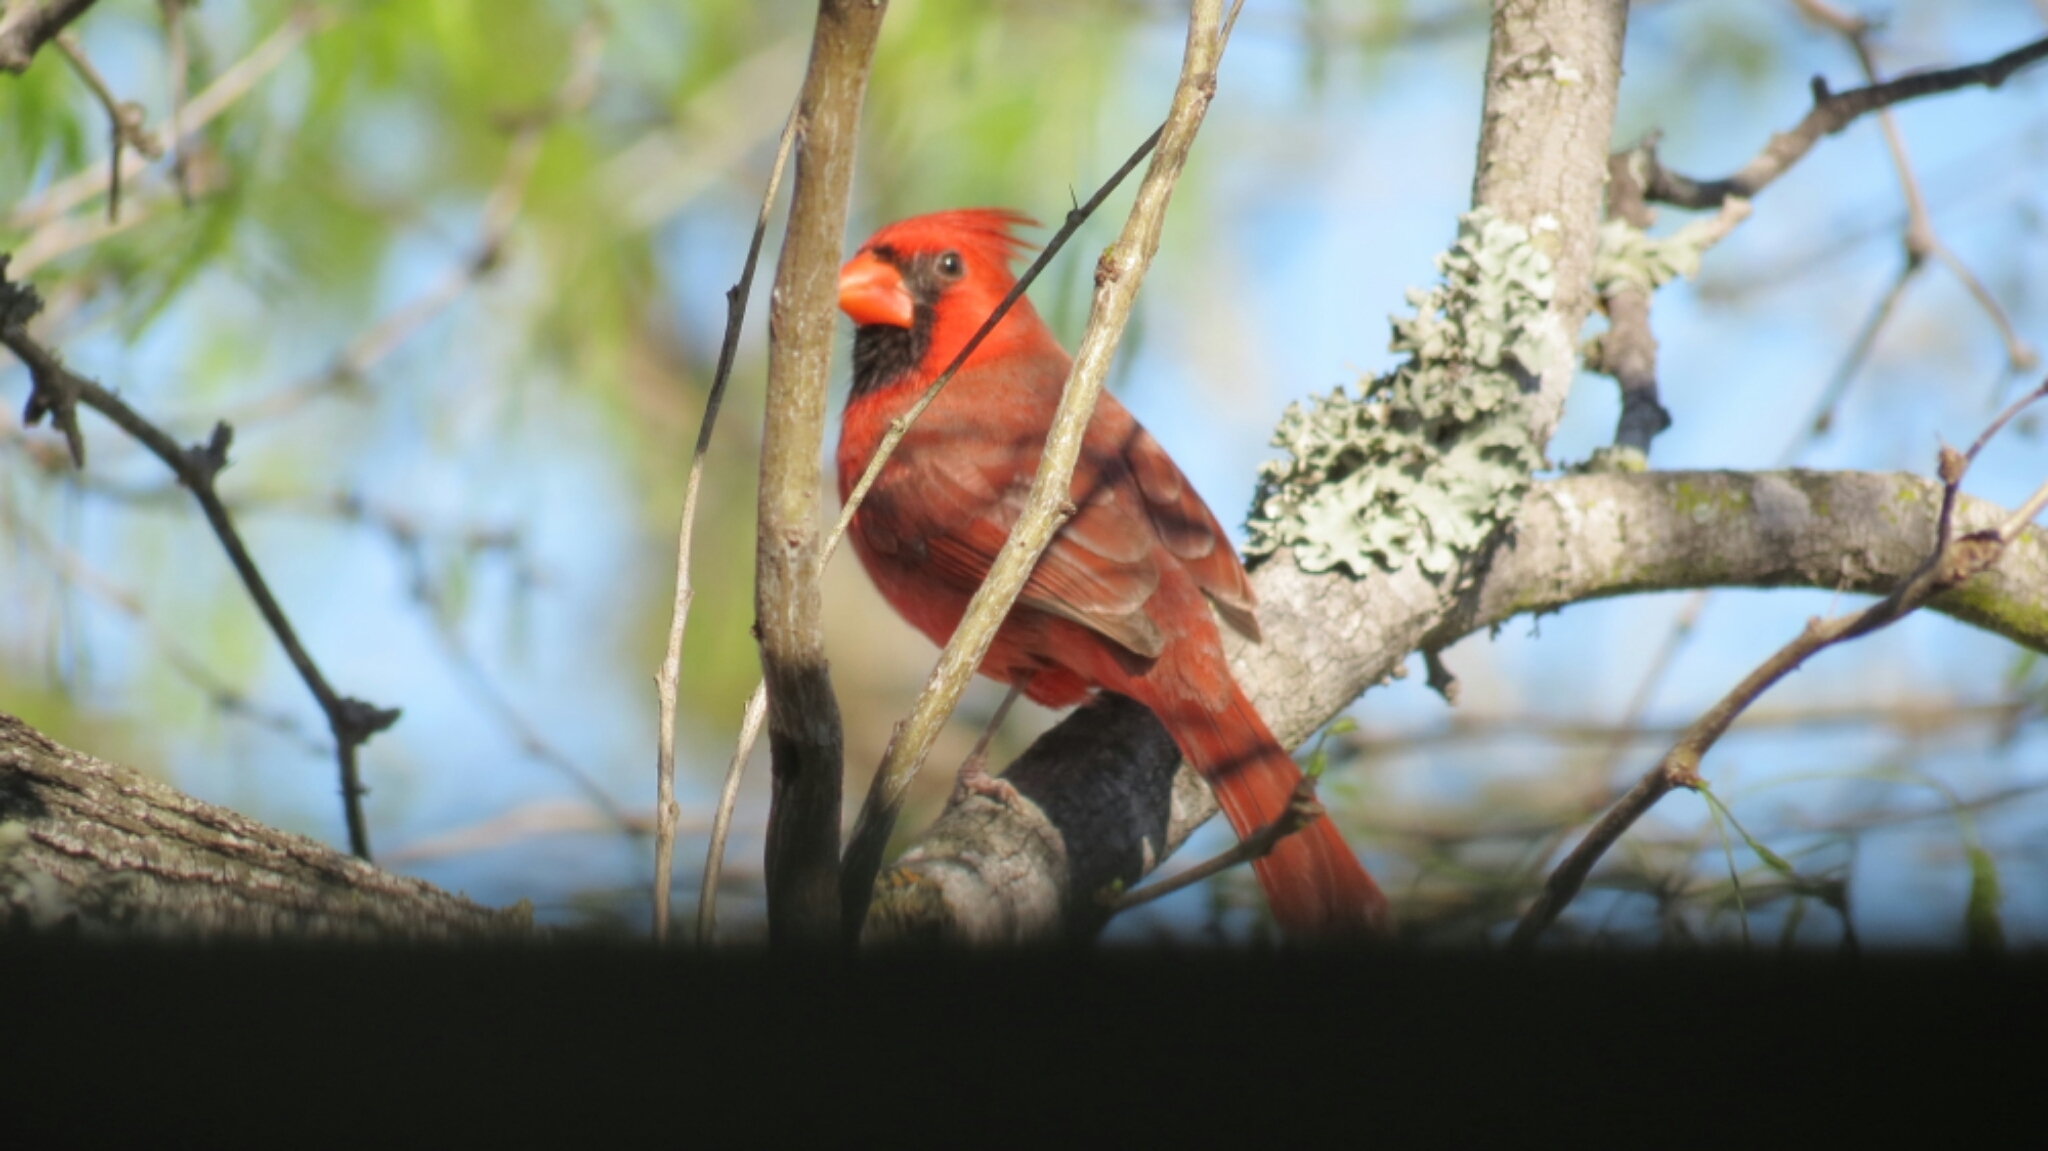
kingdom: Animalia
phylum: Chordata
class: Aves
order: Passeriformes
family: Cardinalidae
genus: Cardinalis
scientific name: Cardinalis cardinalis
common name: Northern cardinal
